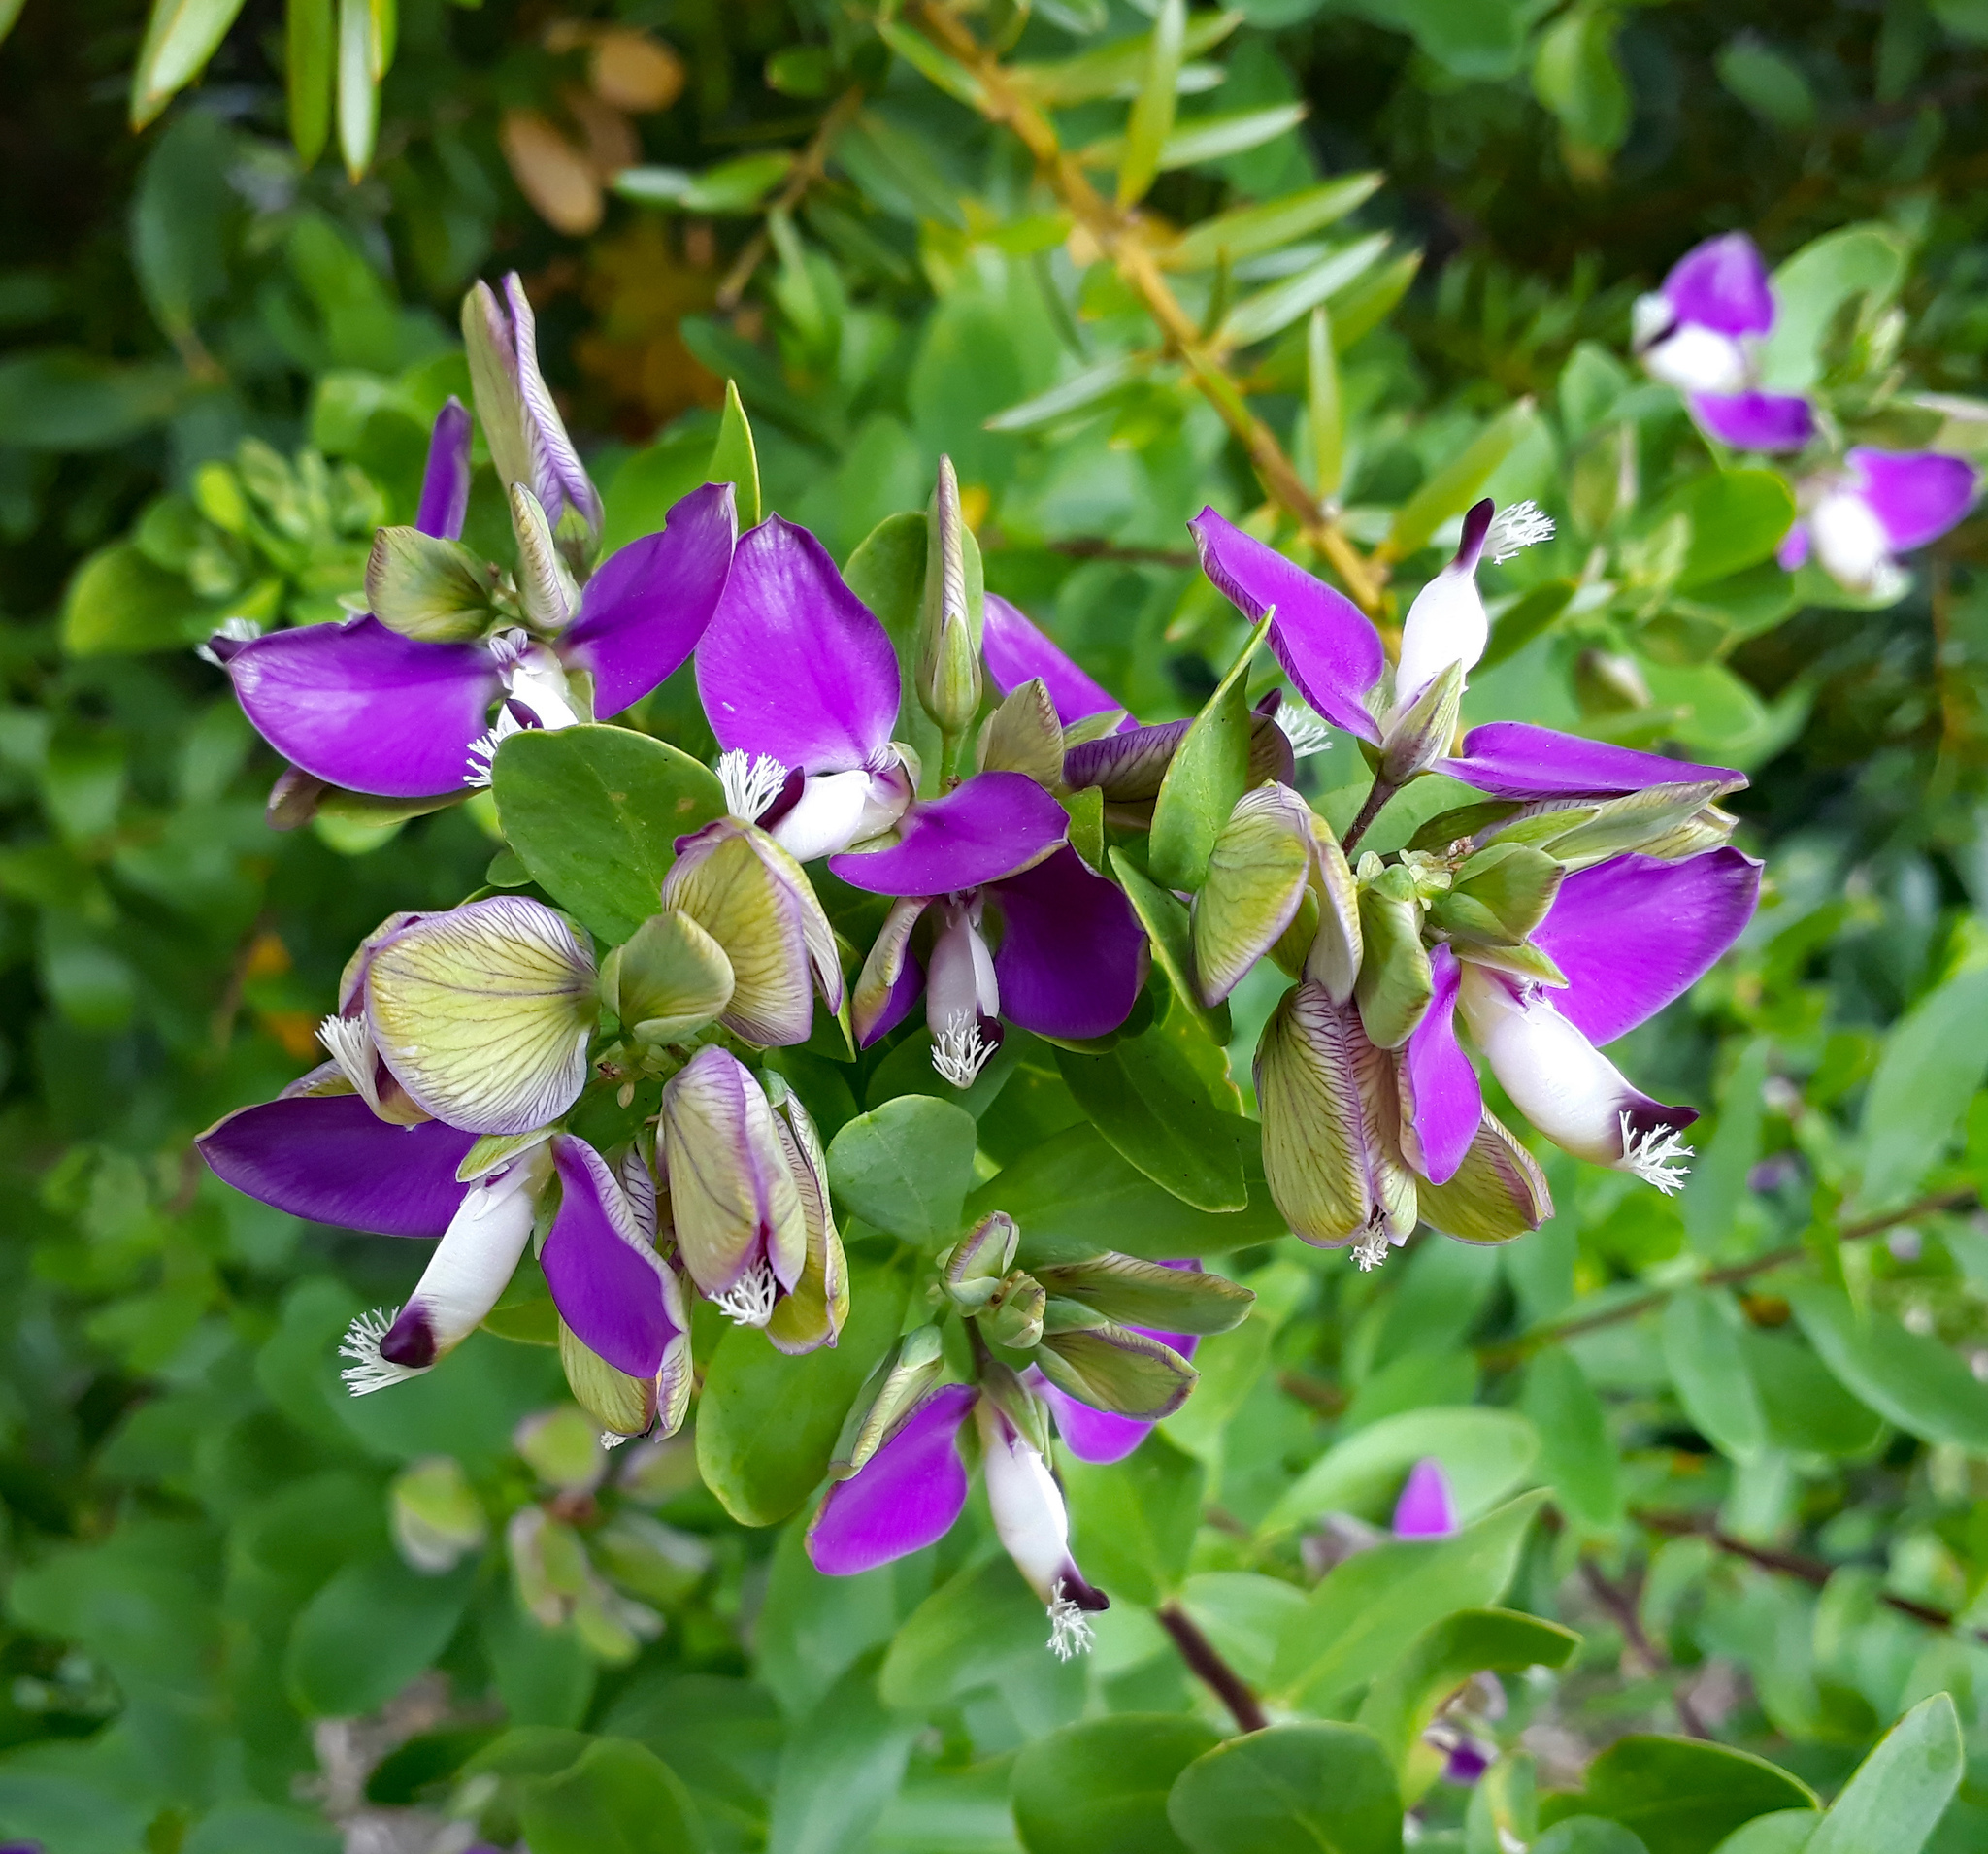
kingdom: Plantae
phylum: Tracheophyta
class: Magnoliopsida
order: Fabales
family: Polygalaceae
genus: Polygala
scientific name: Polygala myrtifolia
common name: Myrtle-leaf milkwort
